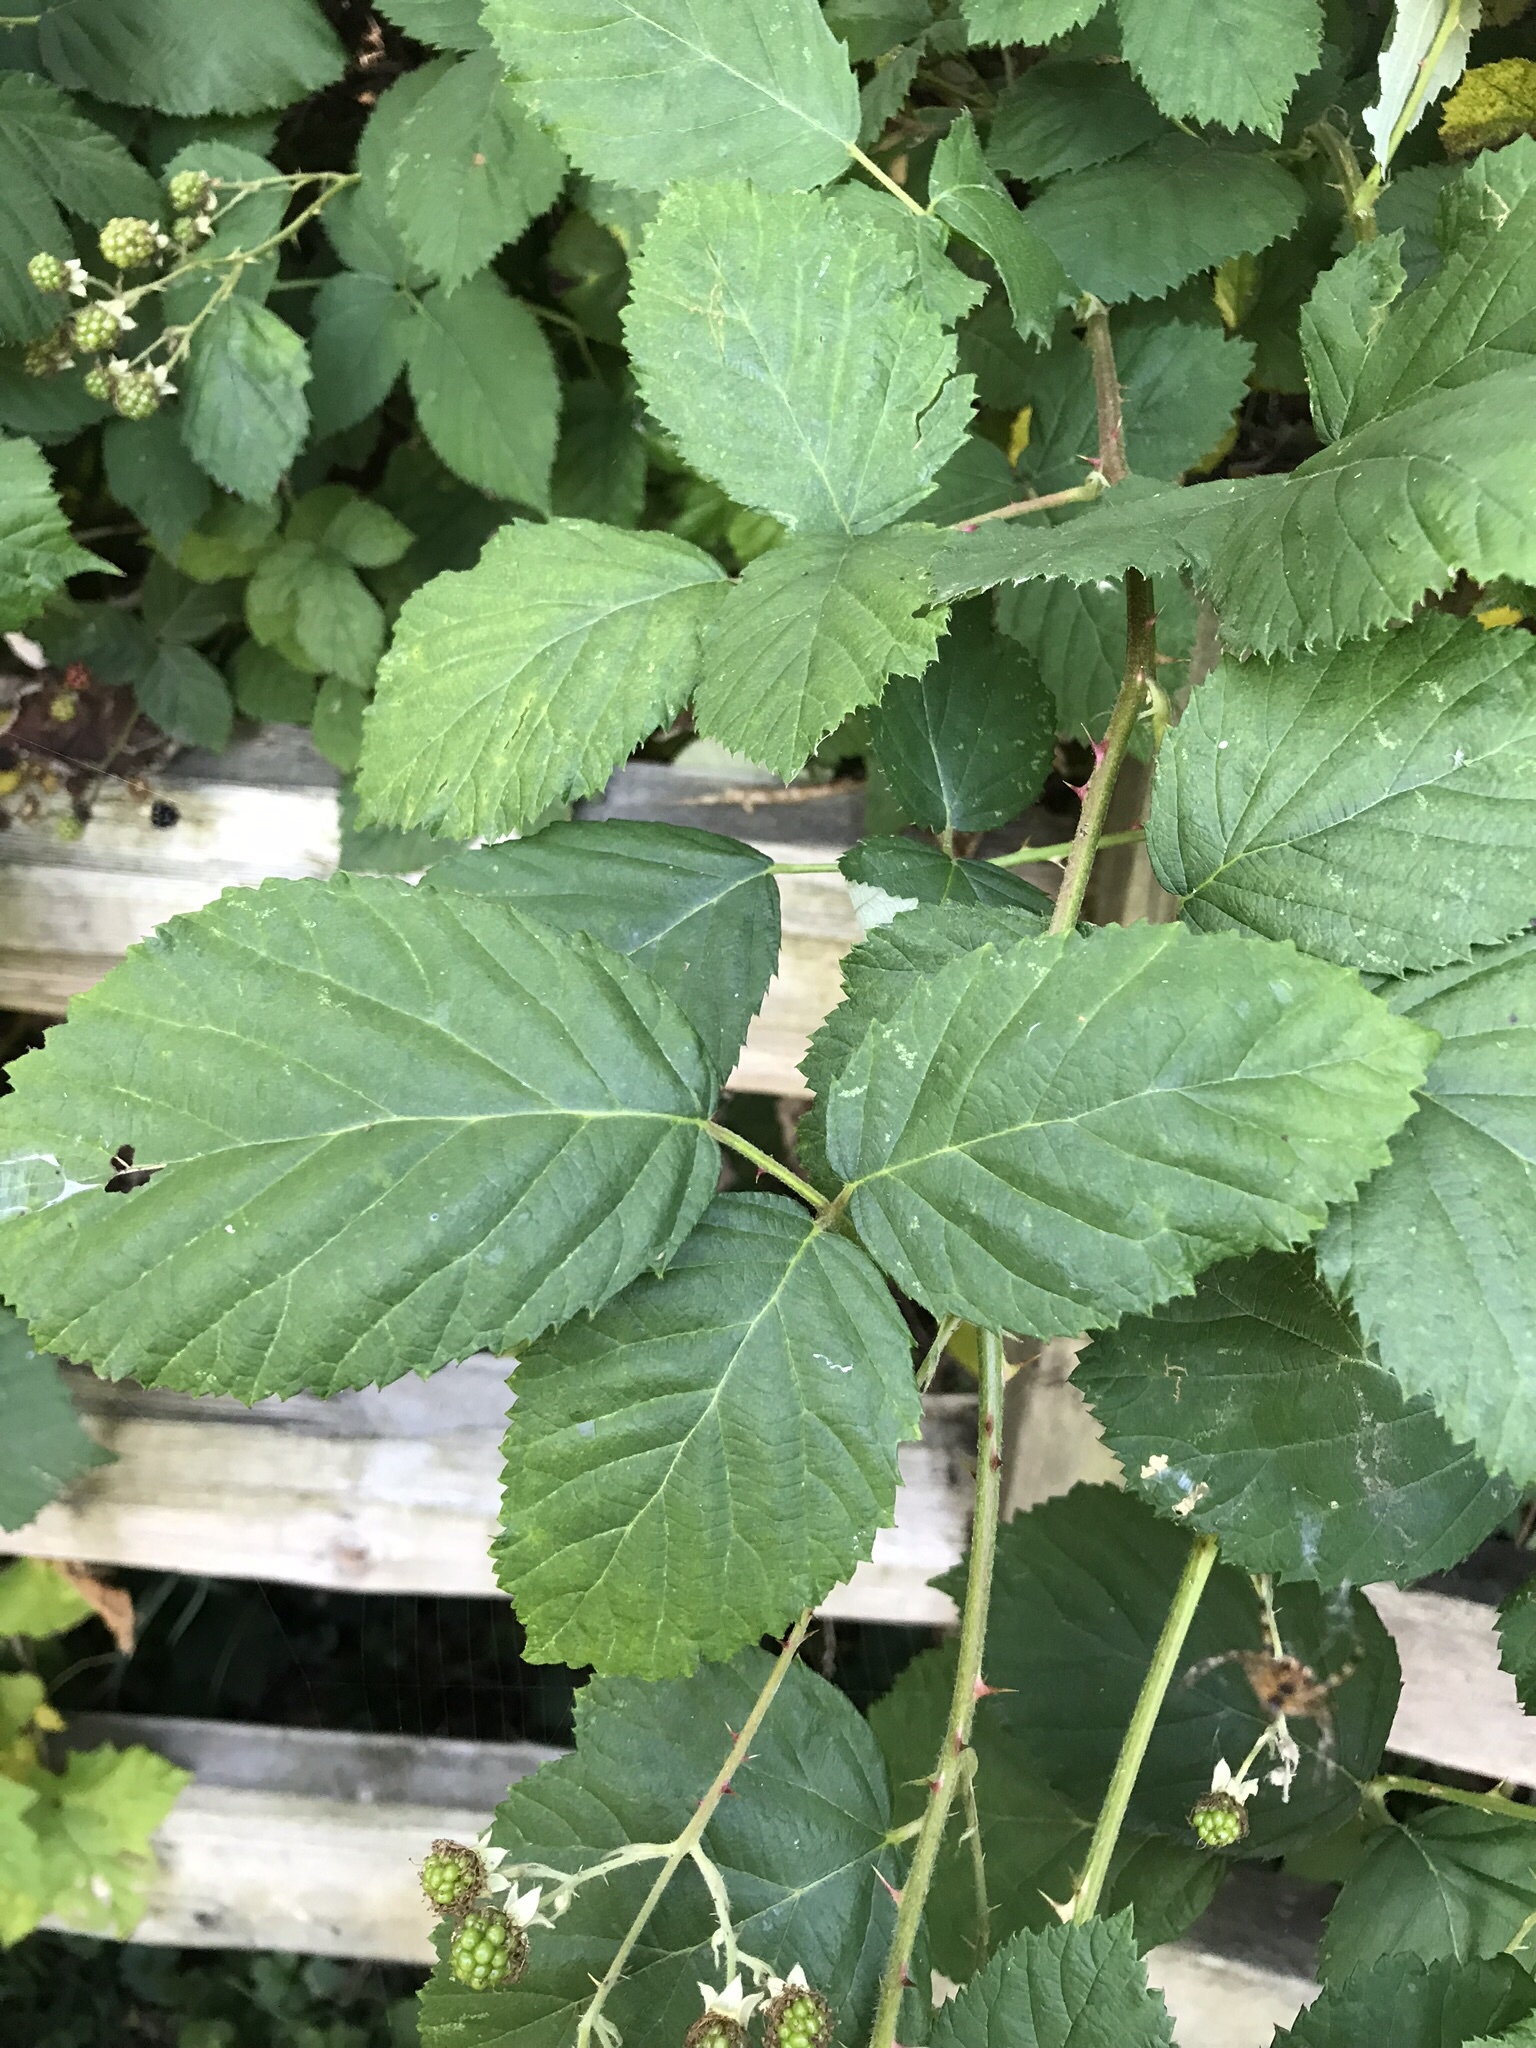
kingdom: Plantae
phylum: Tracheophyta
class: Magnoliopsida
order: Rosales
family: Rosaceae
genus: Rubus
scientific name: Rubus armeniacus
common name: Himalayan blackberry
